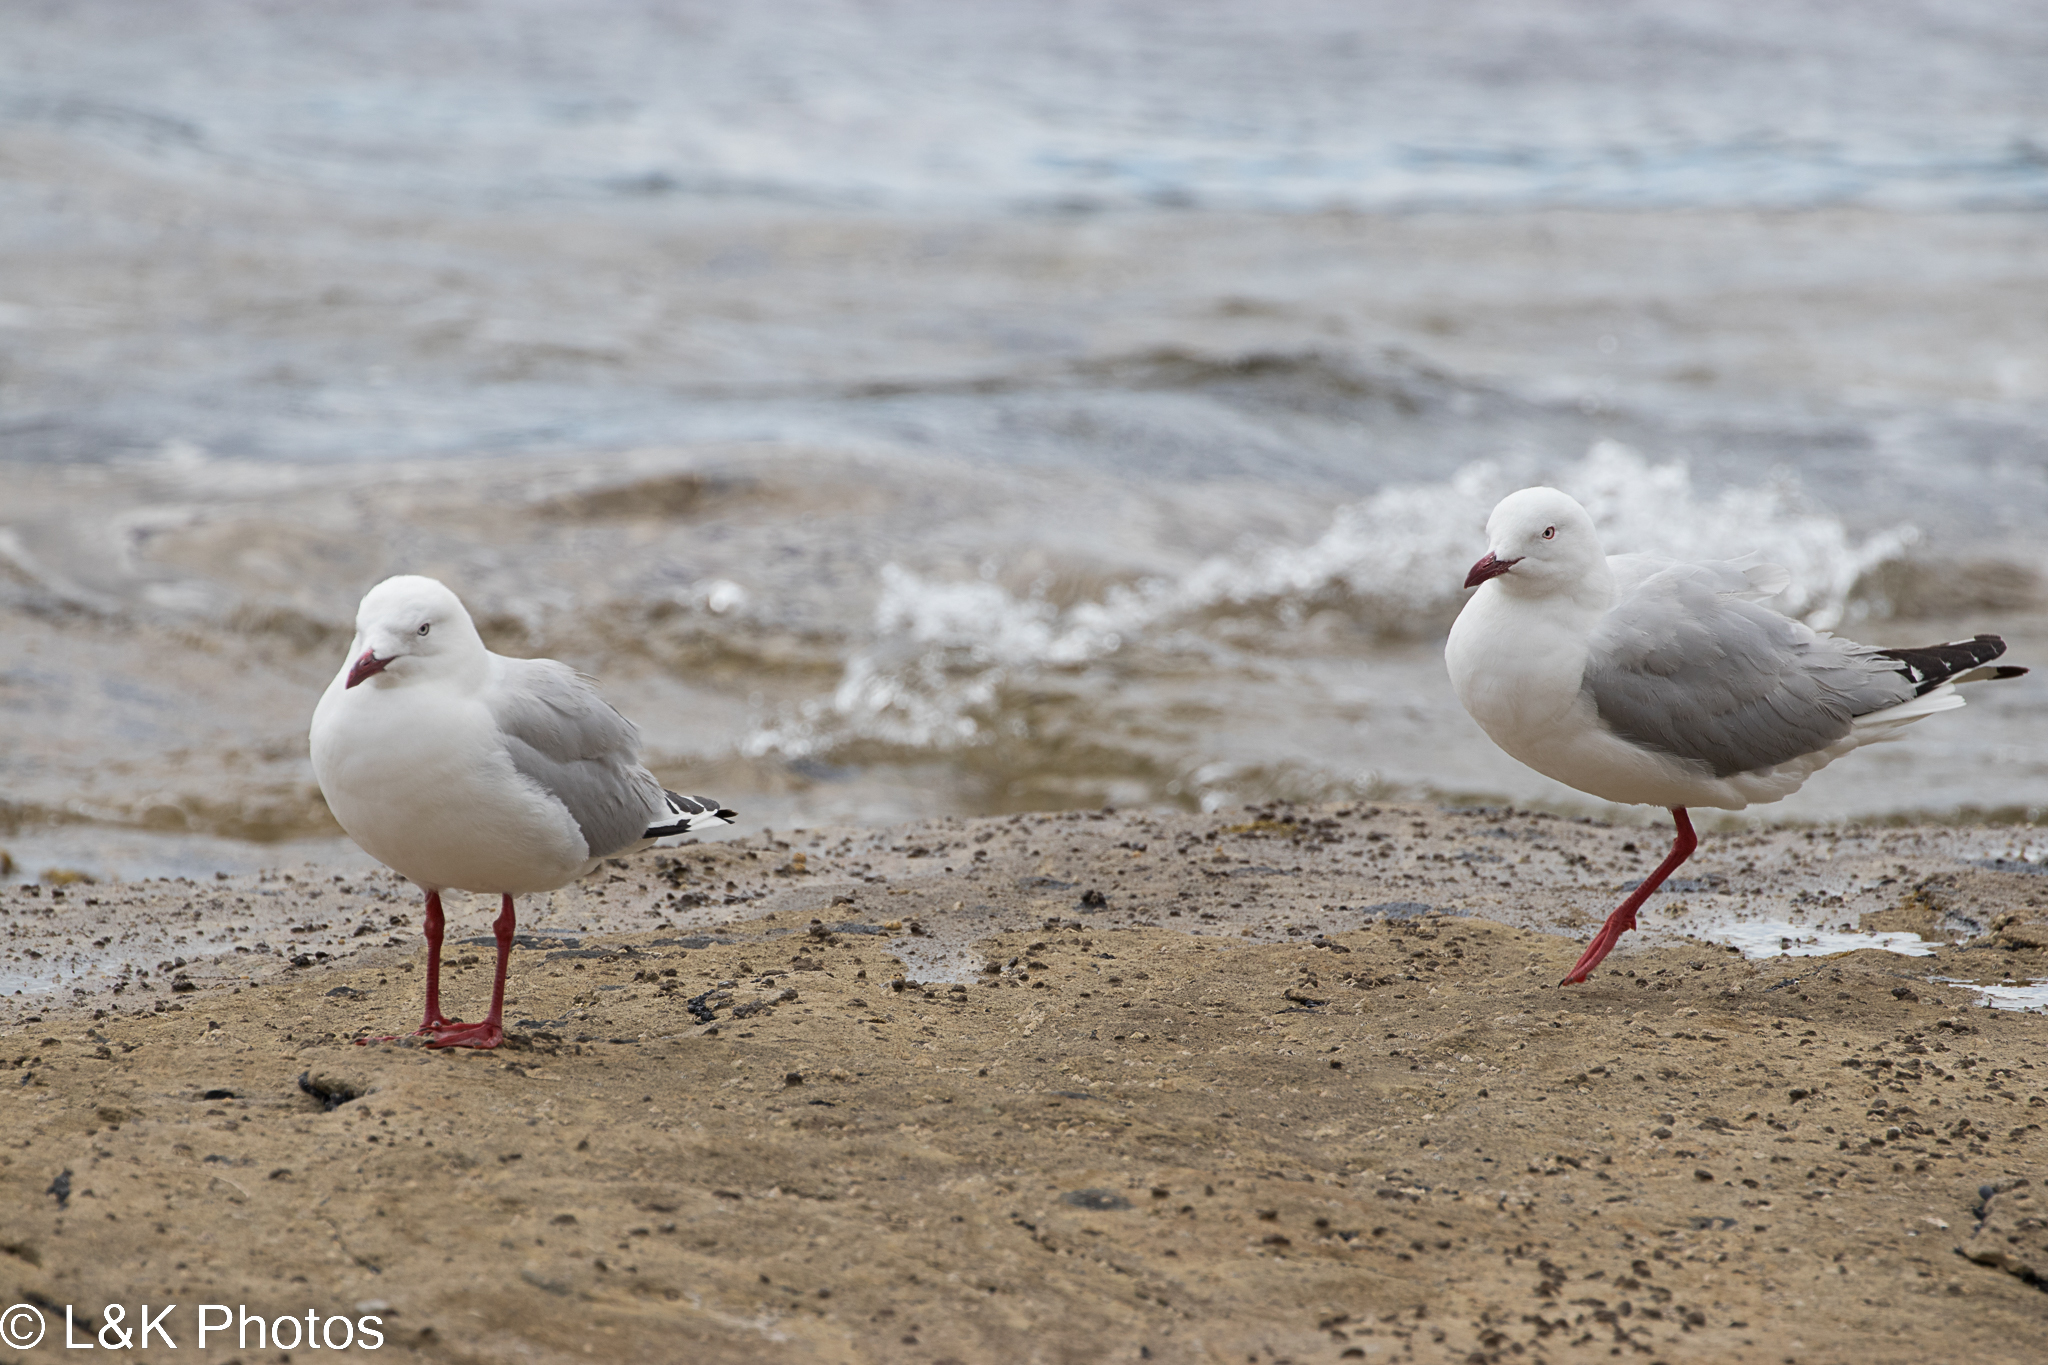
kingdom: Animalia
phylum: Chordata
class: Aves
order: Charadriiformes
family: Laridae
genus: Chroicocephalus
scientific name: Chroicocephalus novaehollandiae
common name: Silver gull
